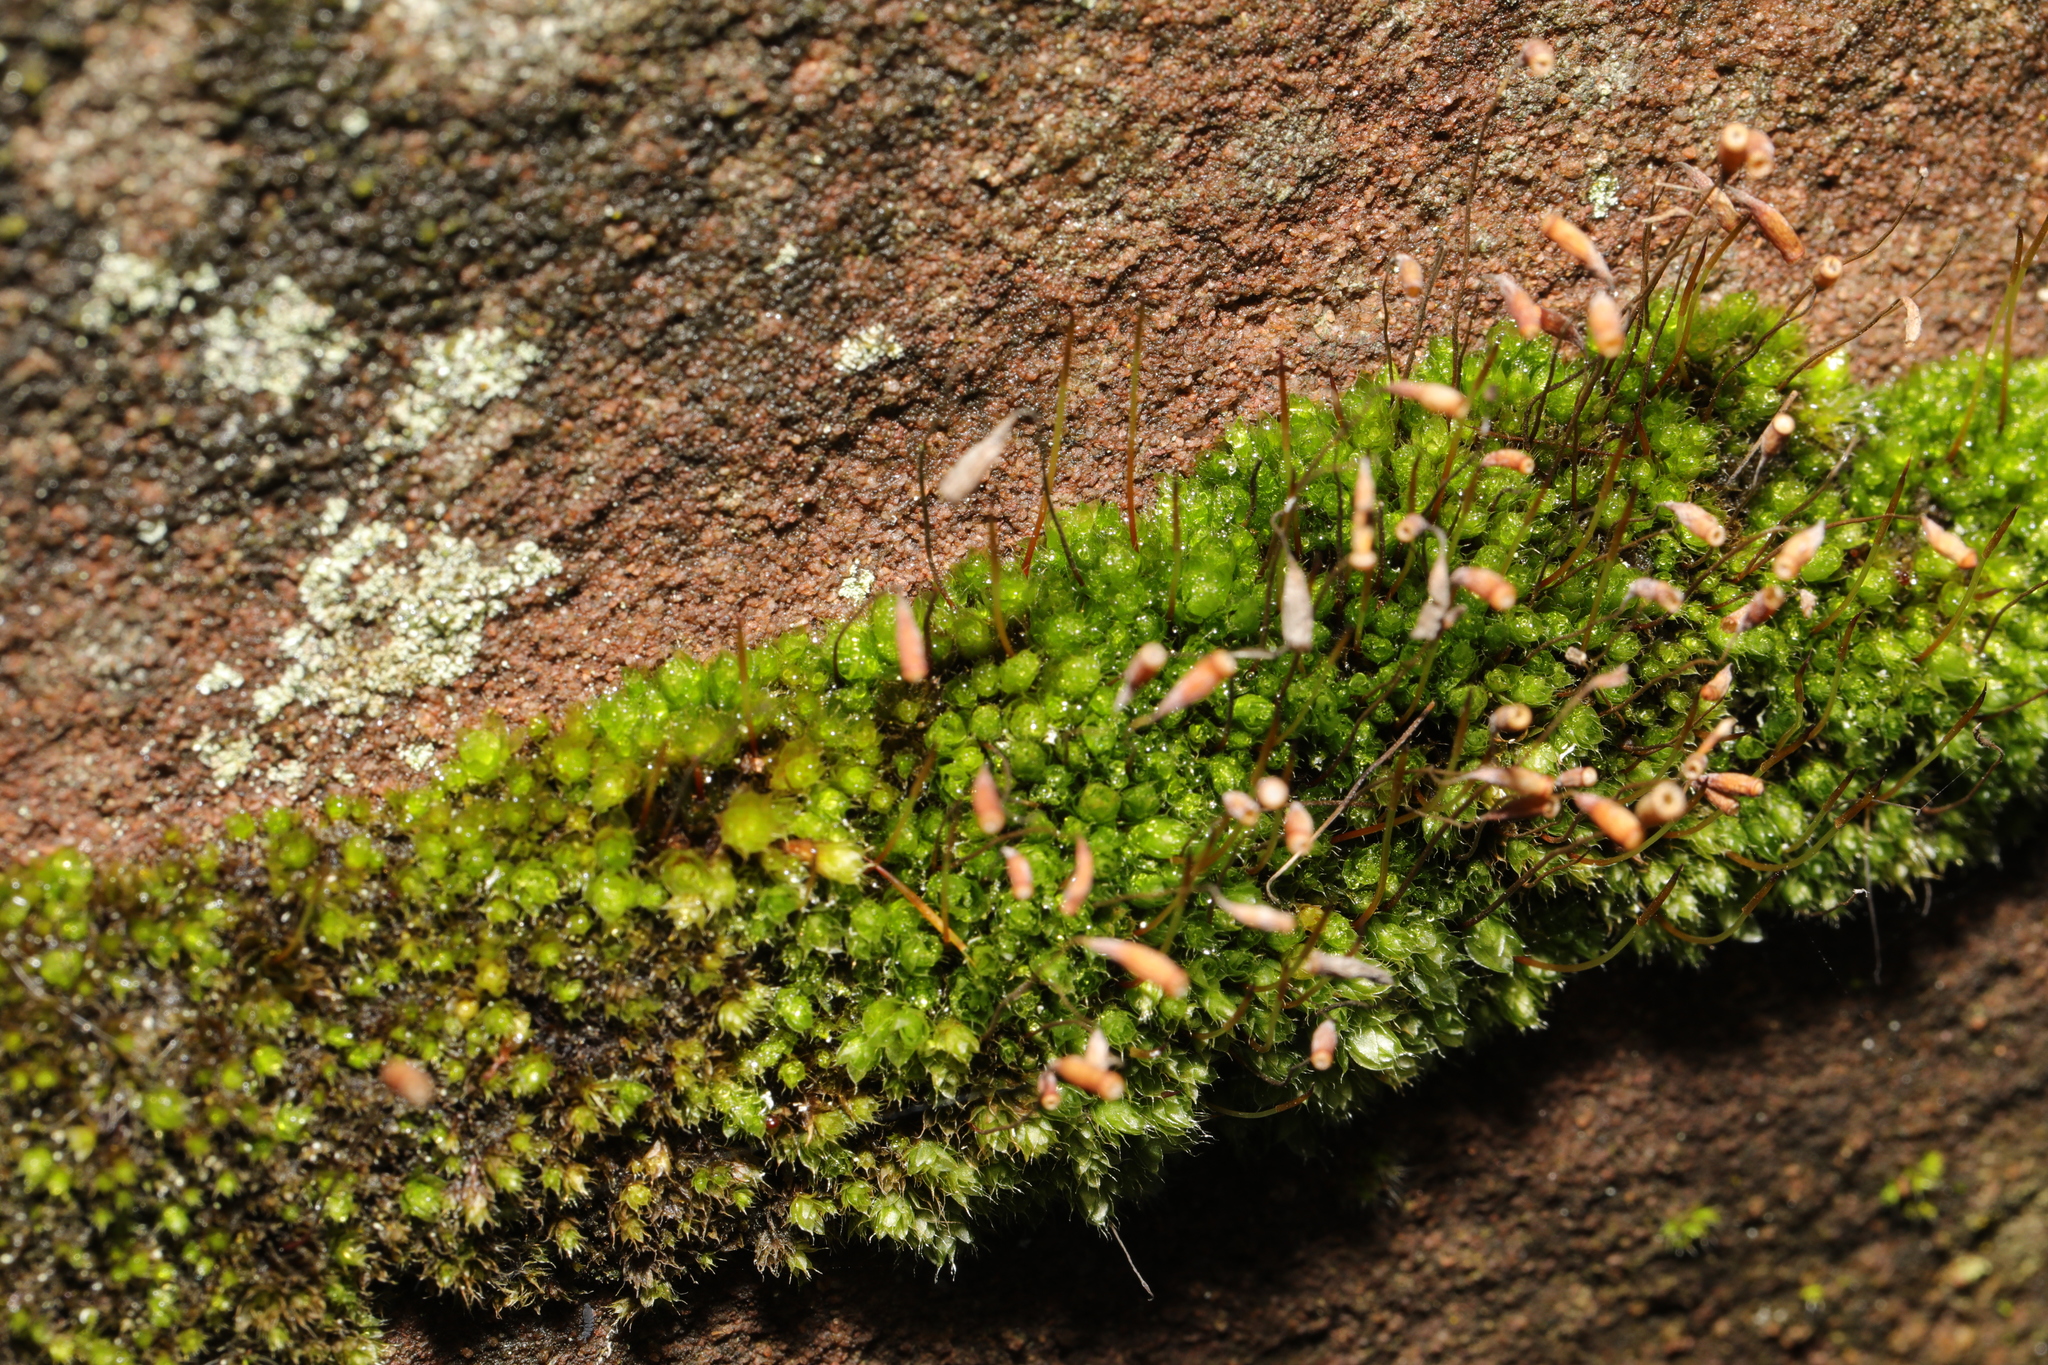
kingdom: Plantae
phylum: Bryophyta
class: Bryopsida
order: Bryales
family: Bryaceae
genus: Rosulabryum
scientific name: Rosulabryum capillare
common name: Capillary thread-moss
